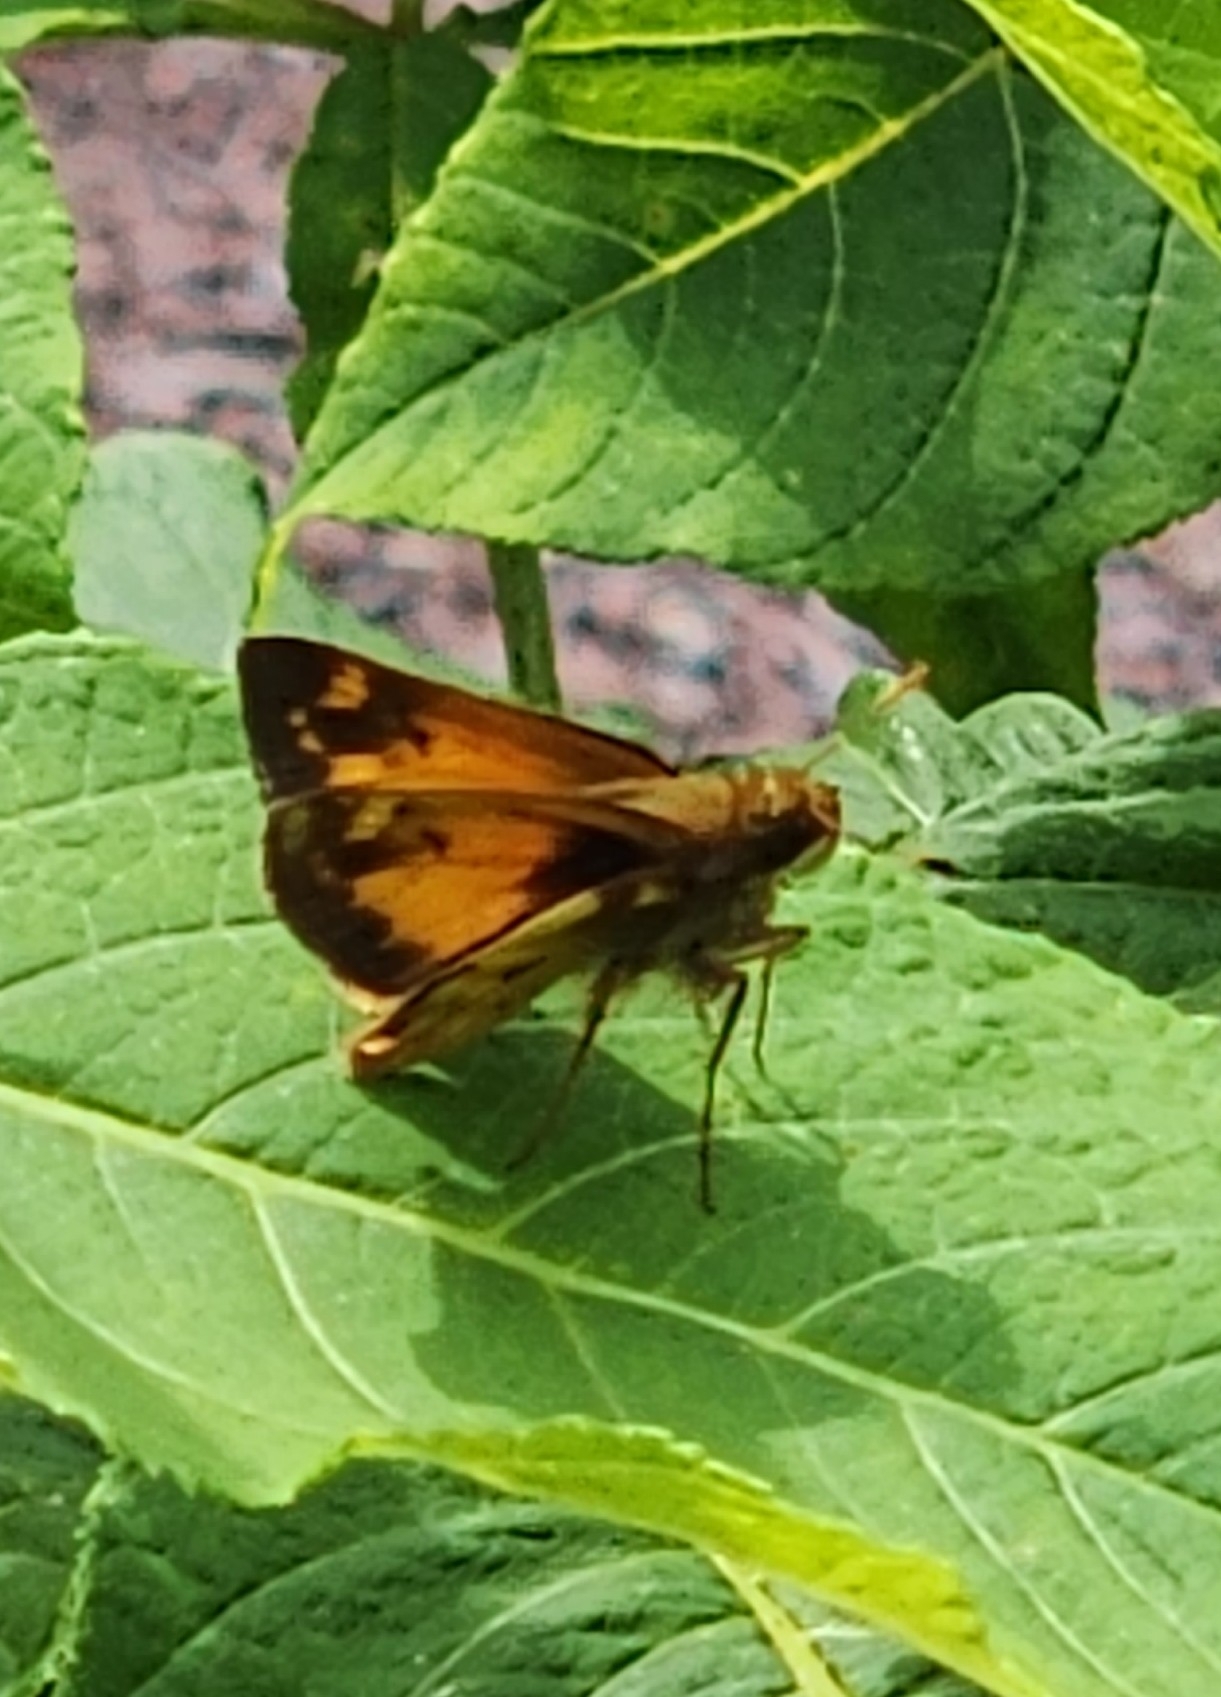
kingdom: Animalia
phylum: Arthropoda
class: Insecta
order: Lepidoptera
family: Hesperiidae
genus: Lon
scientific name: Lon zabulon
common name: Zabulon skipper
